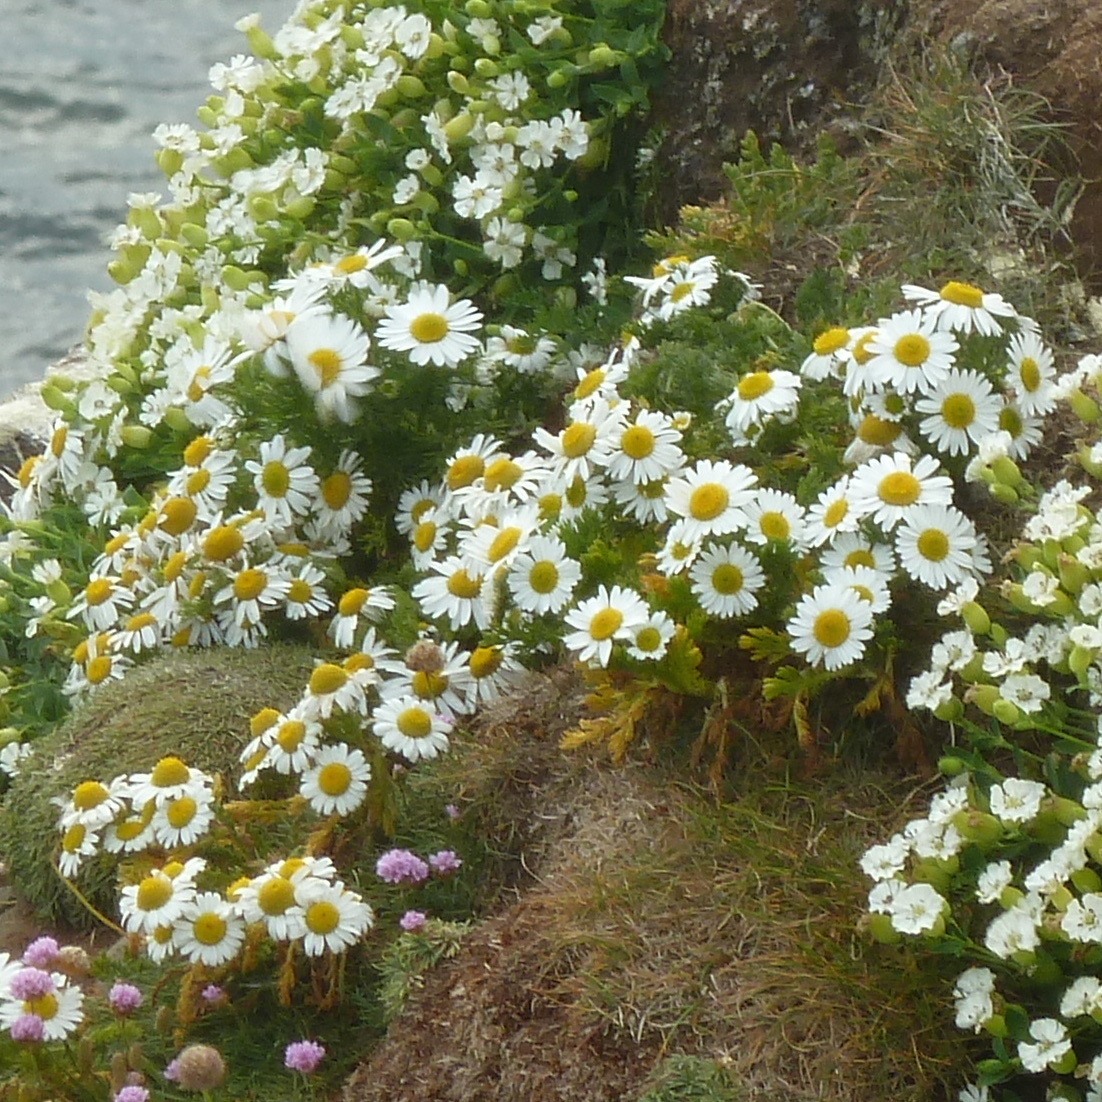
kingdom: Plantae
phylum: Tracheophyta
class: Magnoliopsida
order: Asterales
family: Asteraceae
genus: Tripleurospermum
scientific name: Tripleurospermum maritimum
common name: Sea mayweed
